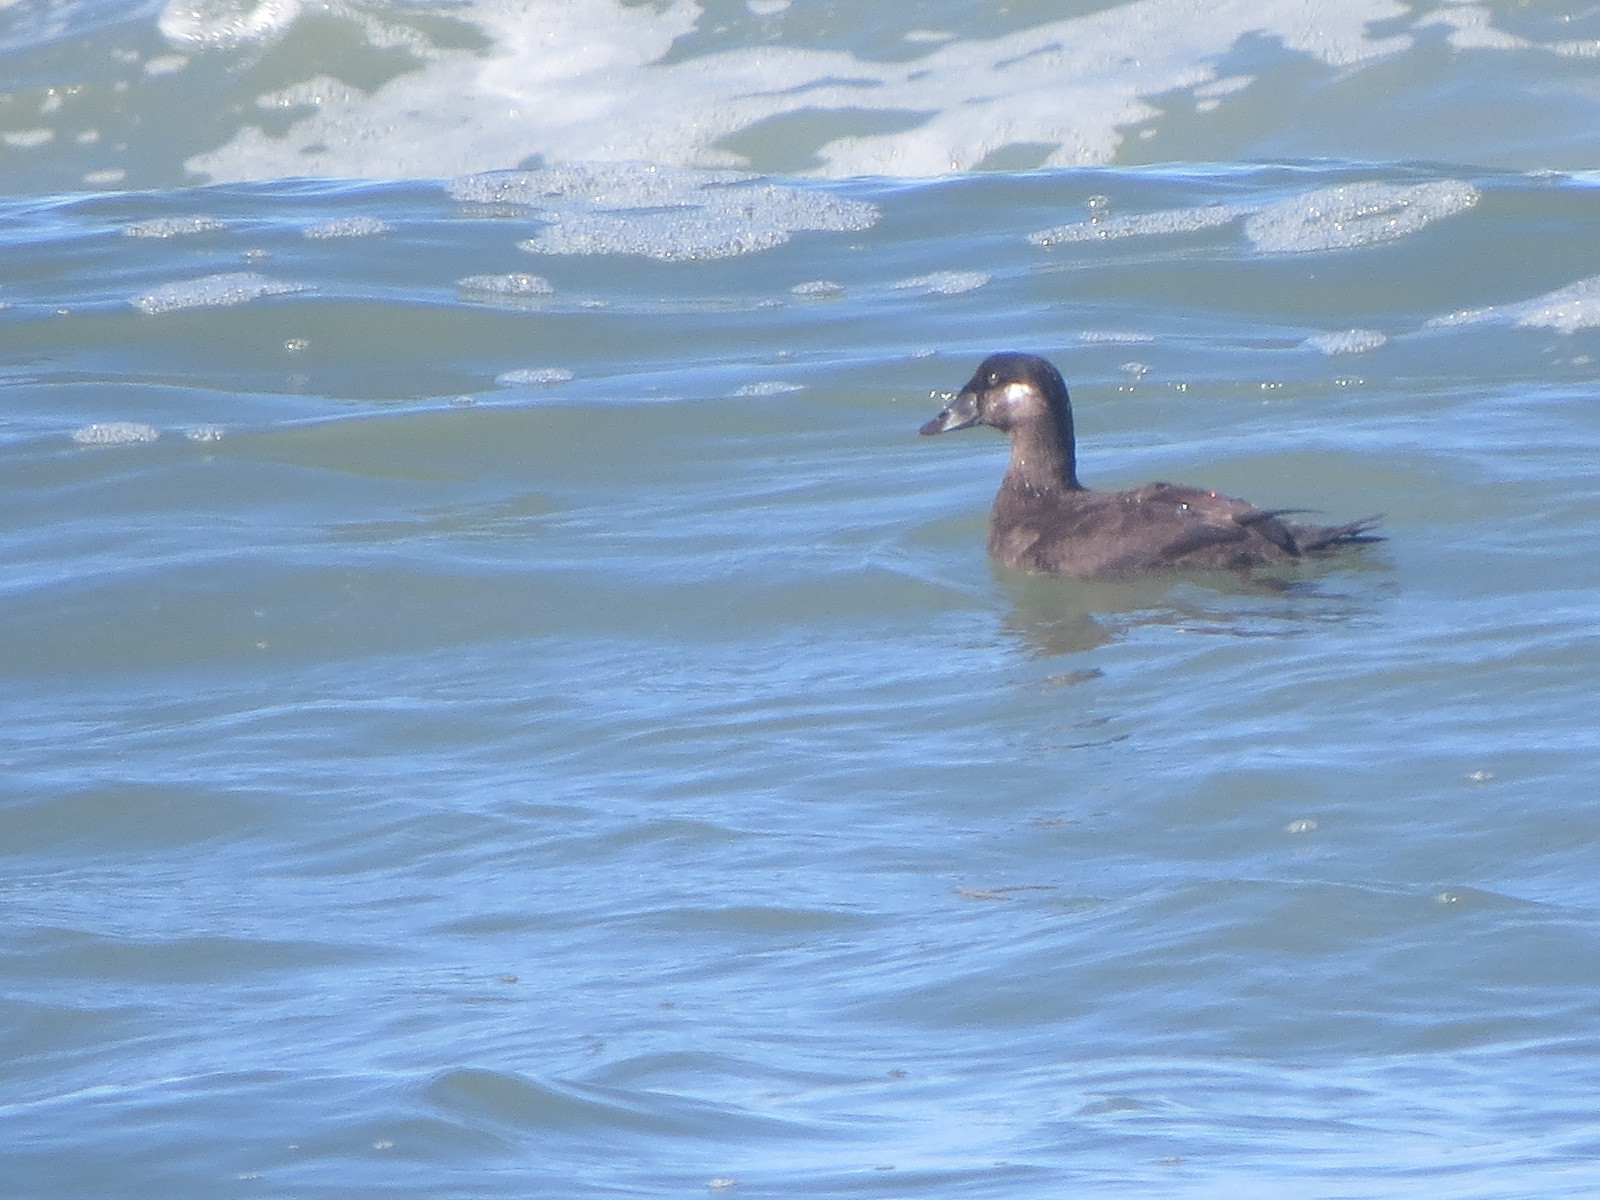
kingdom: Animalia
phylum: Chordata
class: Aves
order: Anseriformes
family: Anatidae
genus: Melanitta
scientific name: Melanitta perspicillata
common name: Surf scoter
